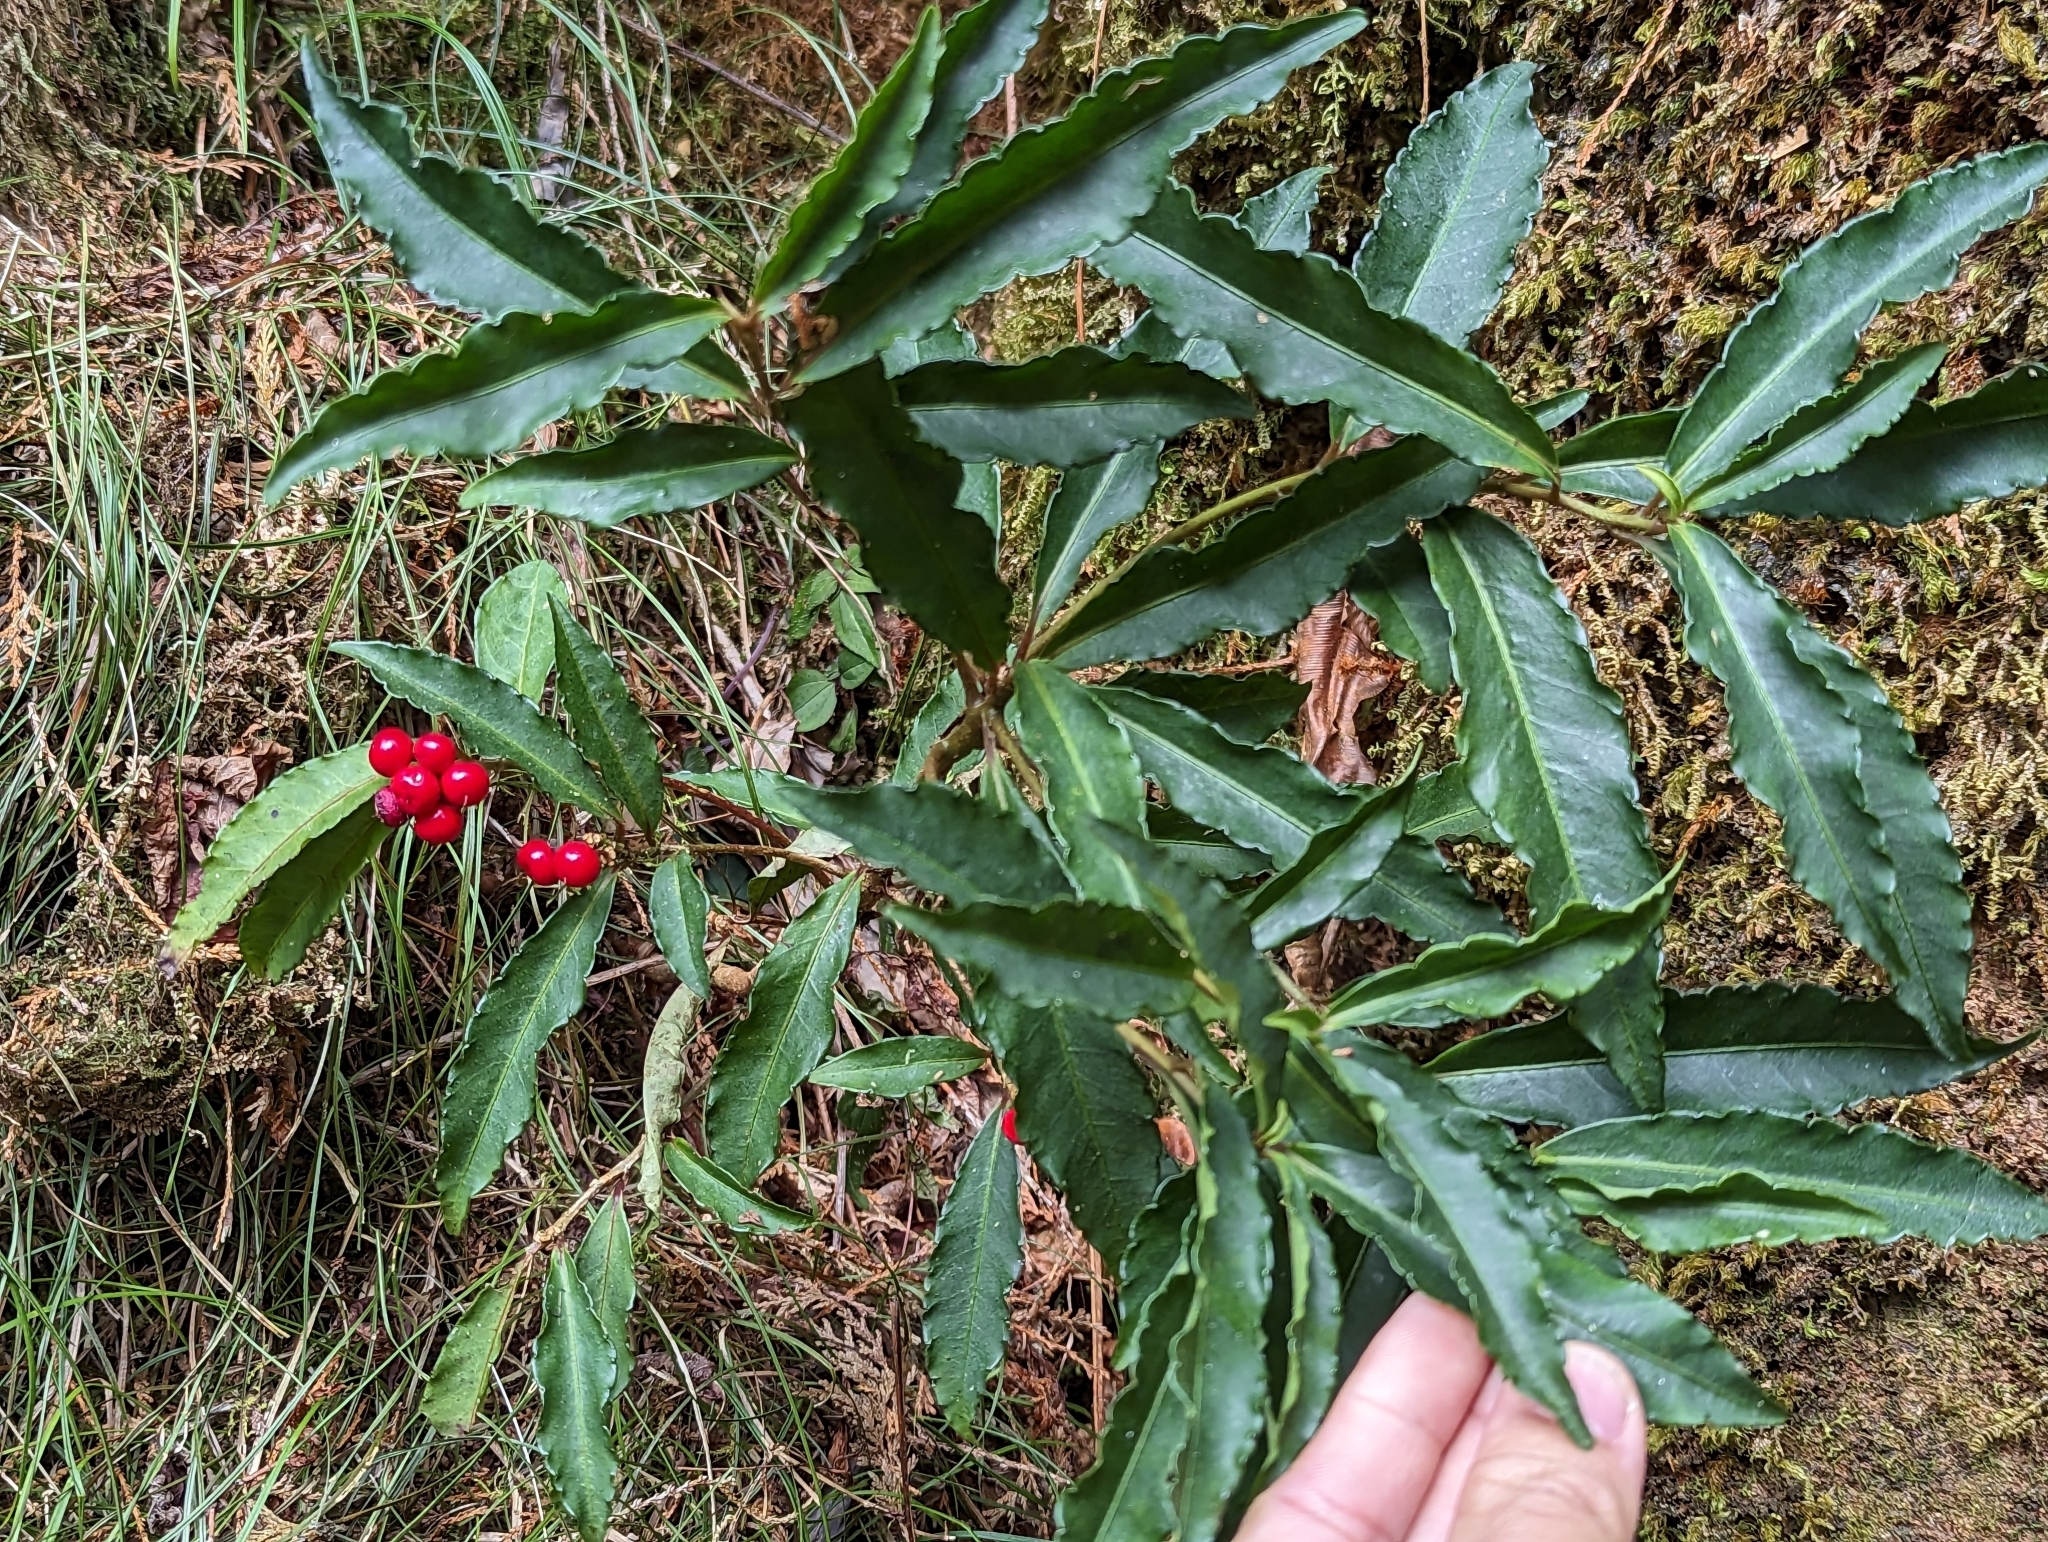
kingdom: Plantae
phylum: Tracheophyta
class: Magnoliopsida
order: Ericales
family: Primulaceae
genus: Ardisia
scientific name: Ardisia crenata
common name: Hen's eyes
